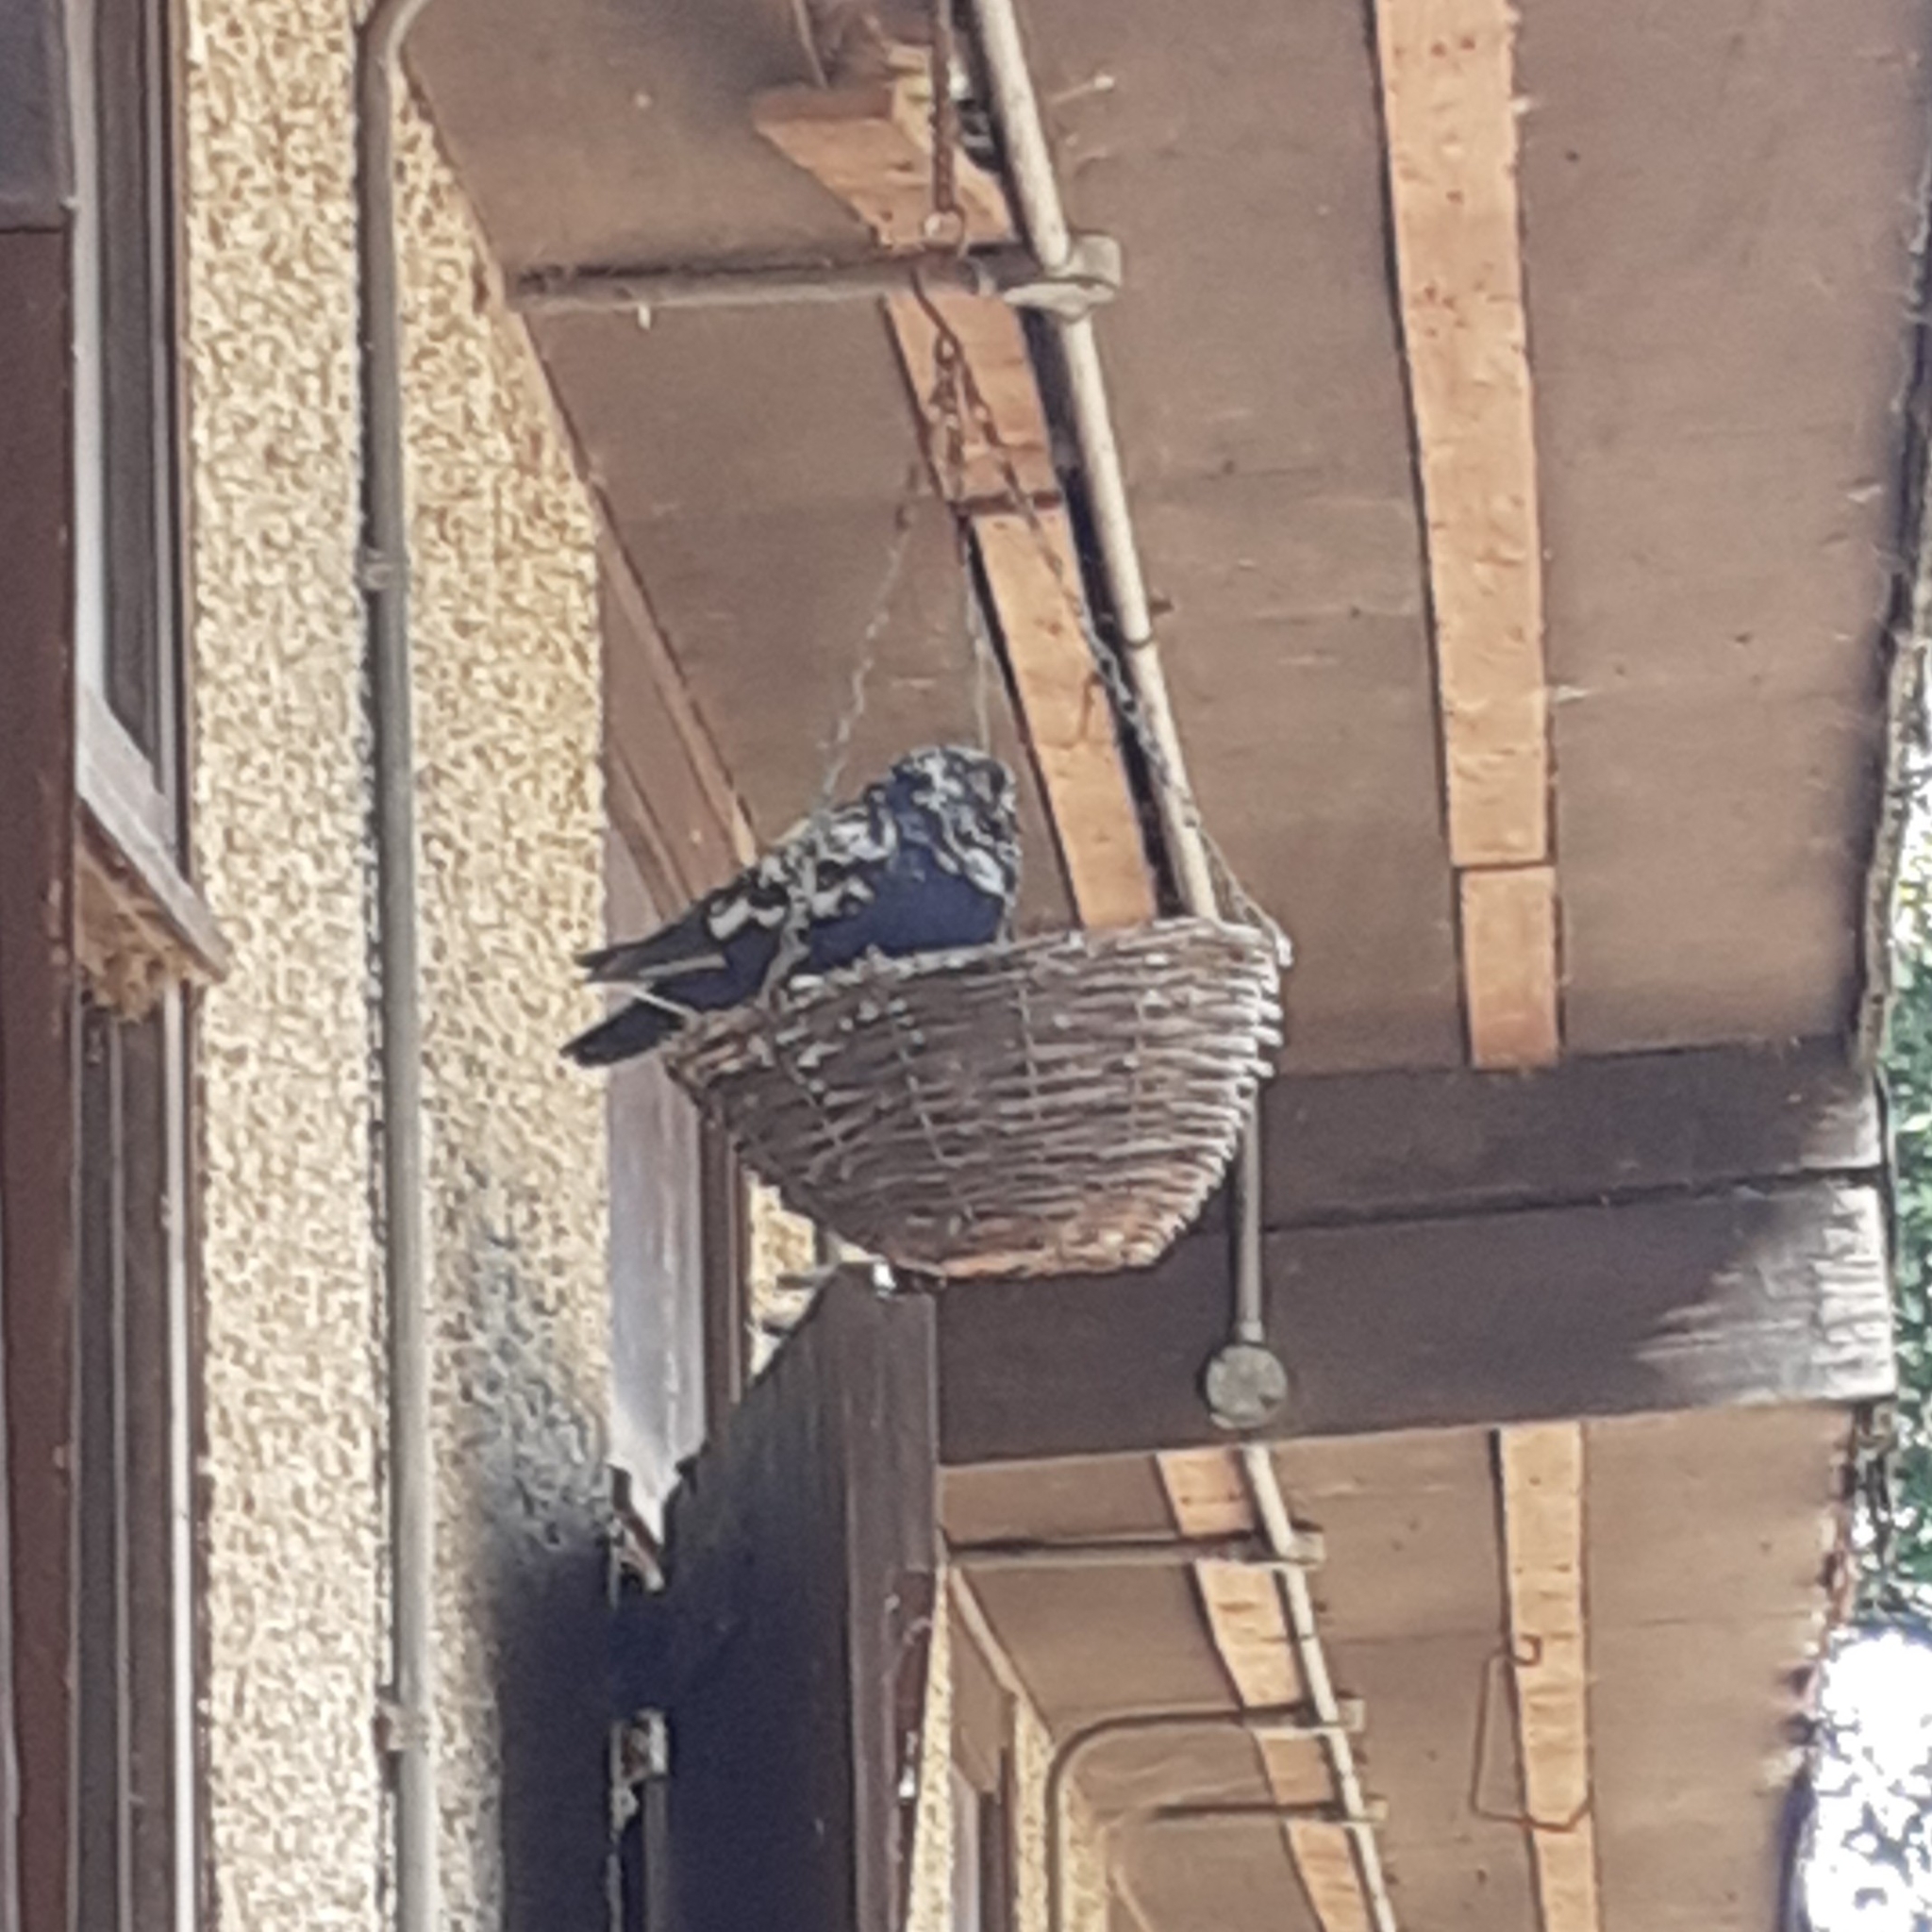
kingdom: Animalia
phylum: Chordata
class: Aves
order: Columbiformes
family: Columbidae
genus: Columba
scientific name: Columba livia
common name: Rock pigeon
